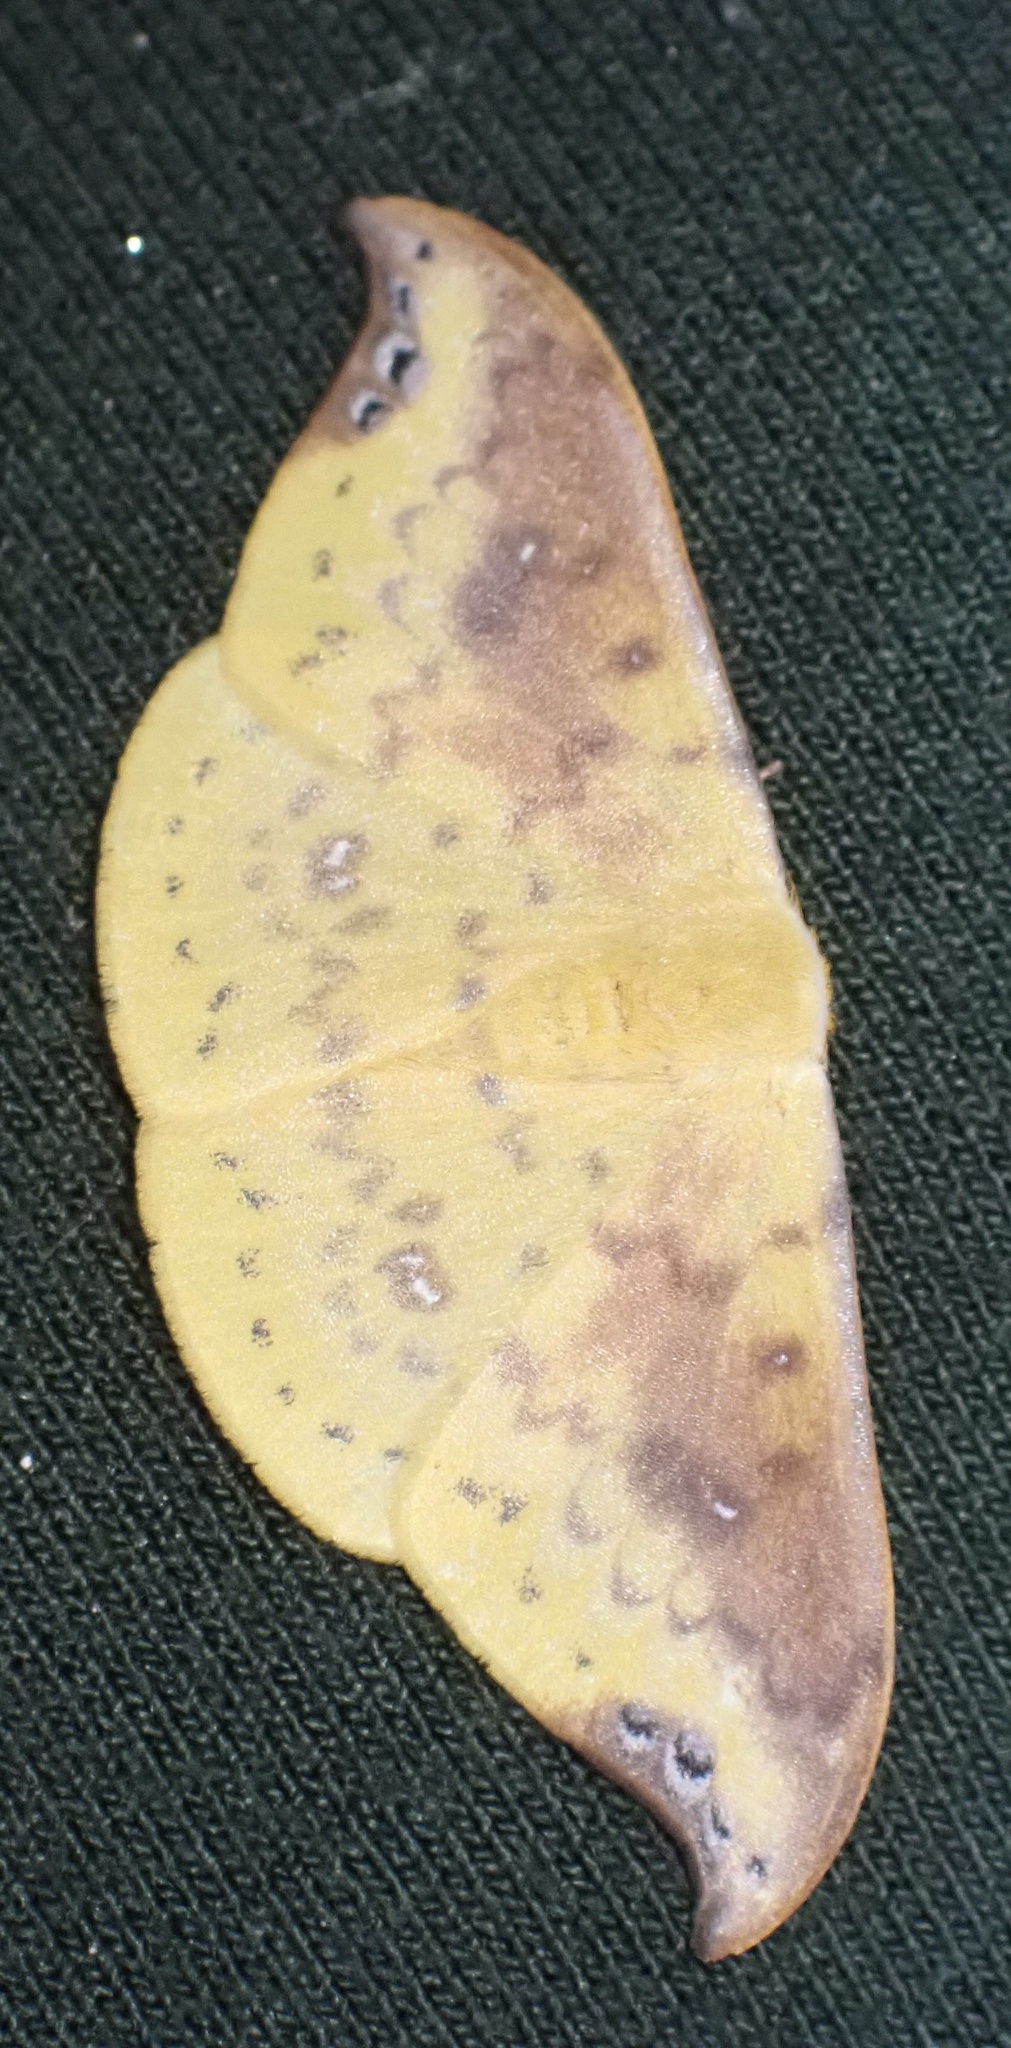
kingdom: Animalia
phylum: Arthropoda
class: Insecta
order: Lepidoptera
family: Drepanidae
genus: Tridrepana
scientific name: Tridrepana examplata
